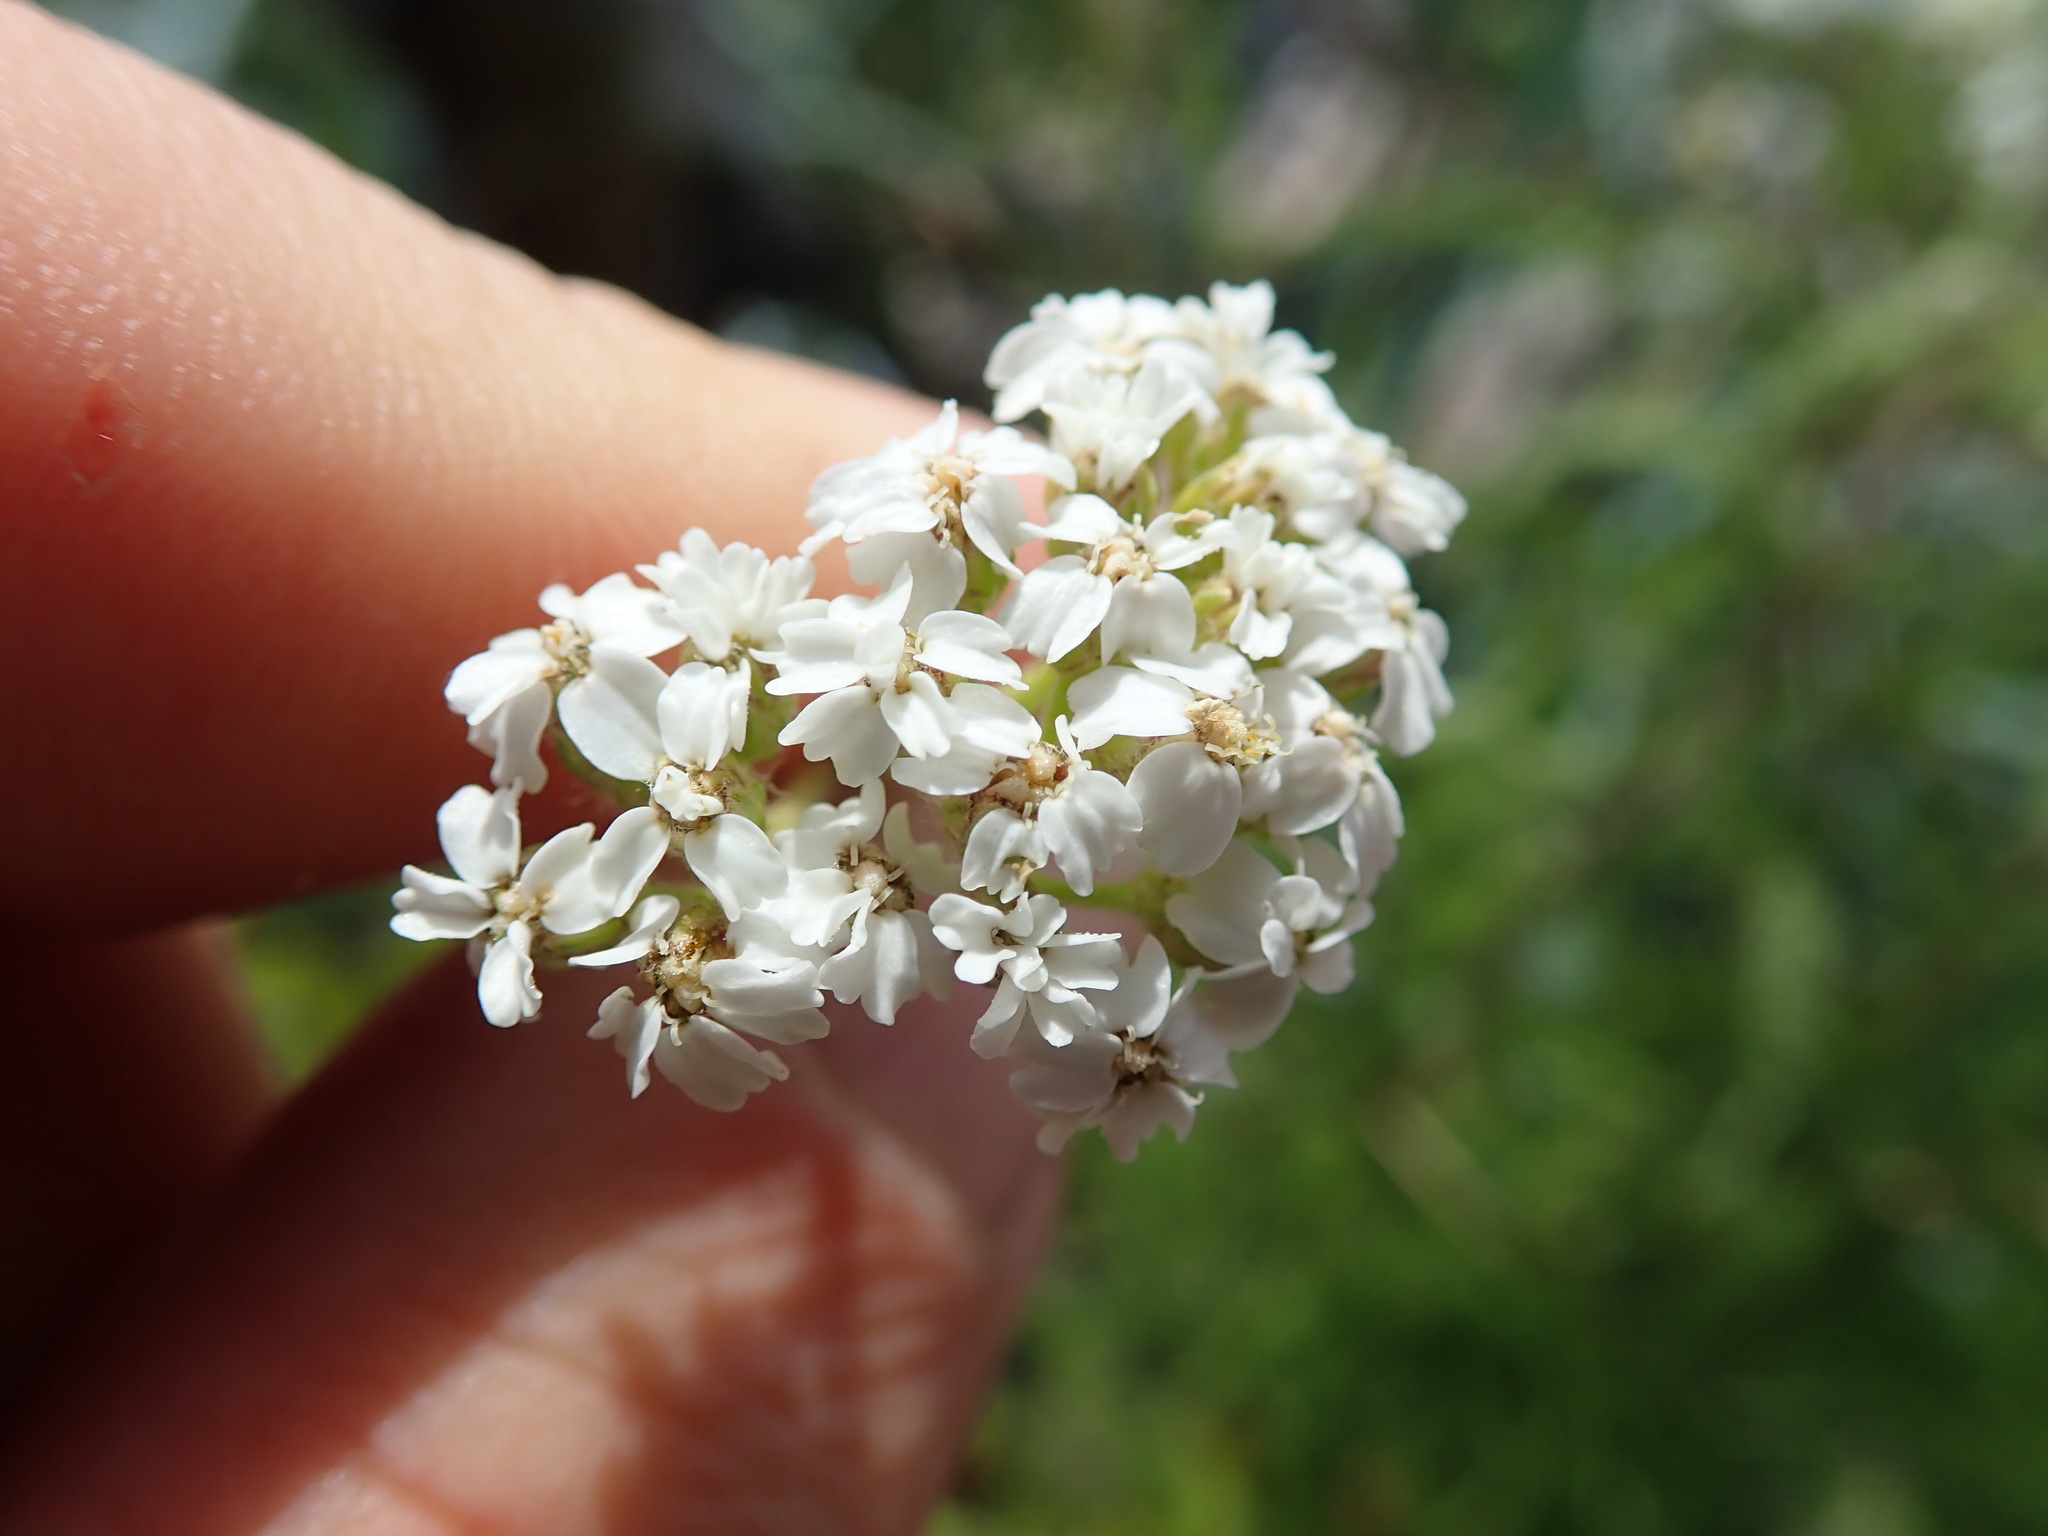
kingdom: Plantae
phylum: Tracheophyta
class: Magnoliopsida
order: Asterales
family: Asteraceae
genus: Achillea
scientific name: Achillea millefolium
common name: Yarrow
